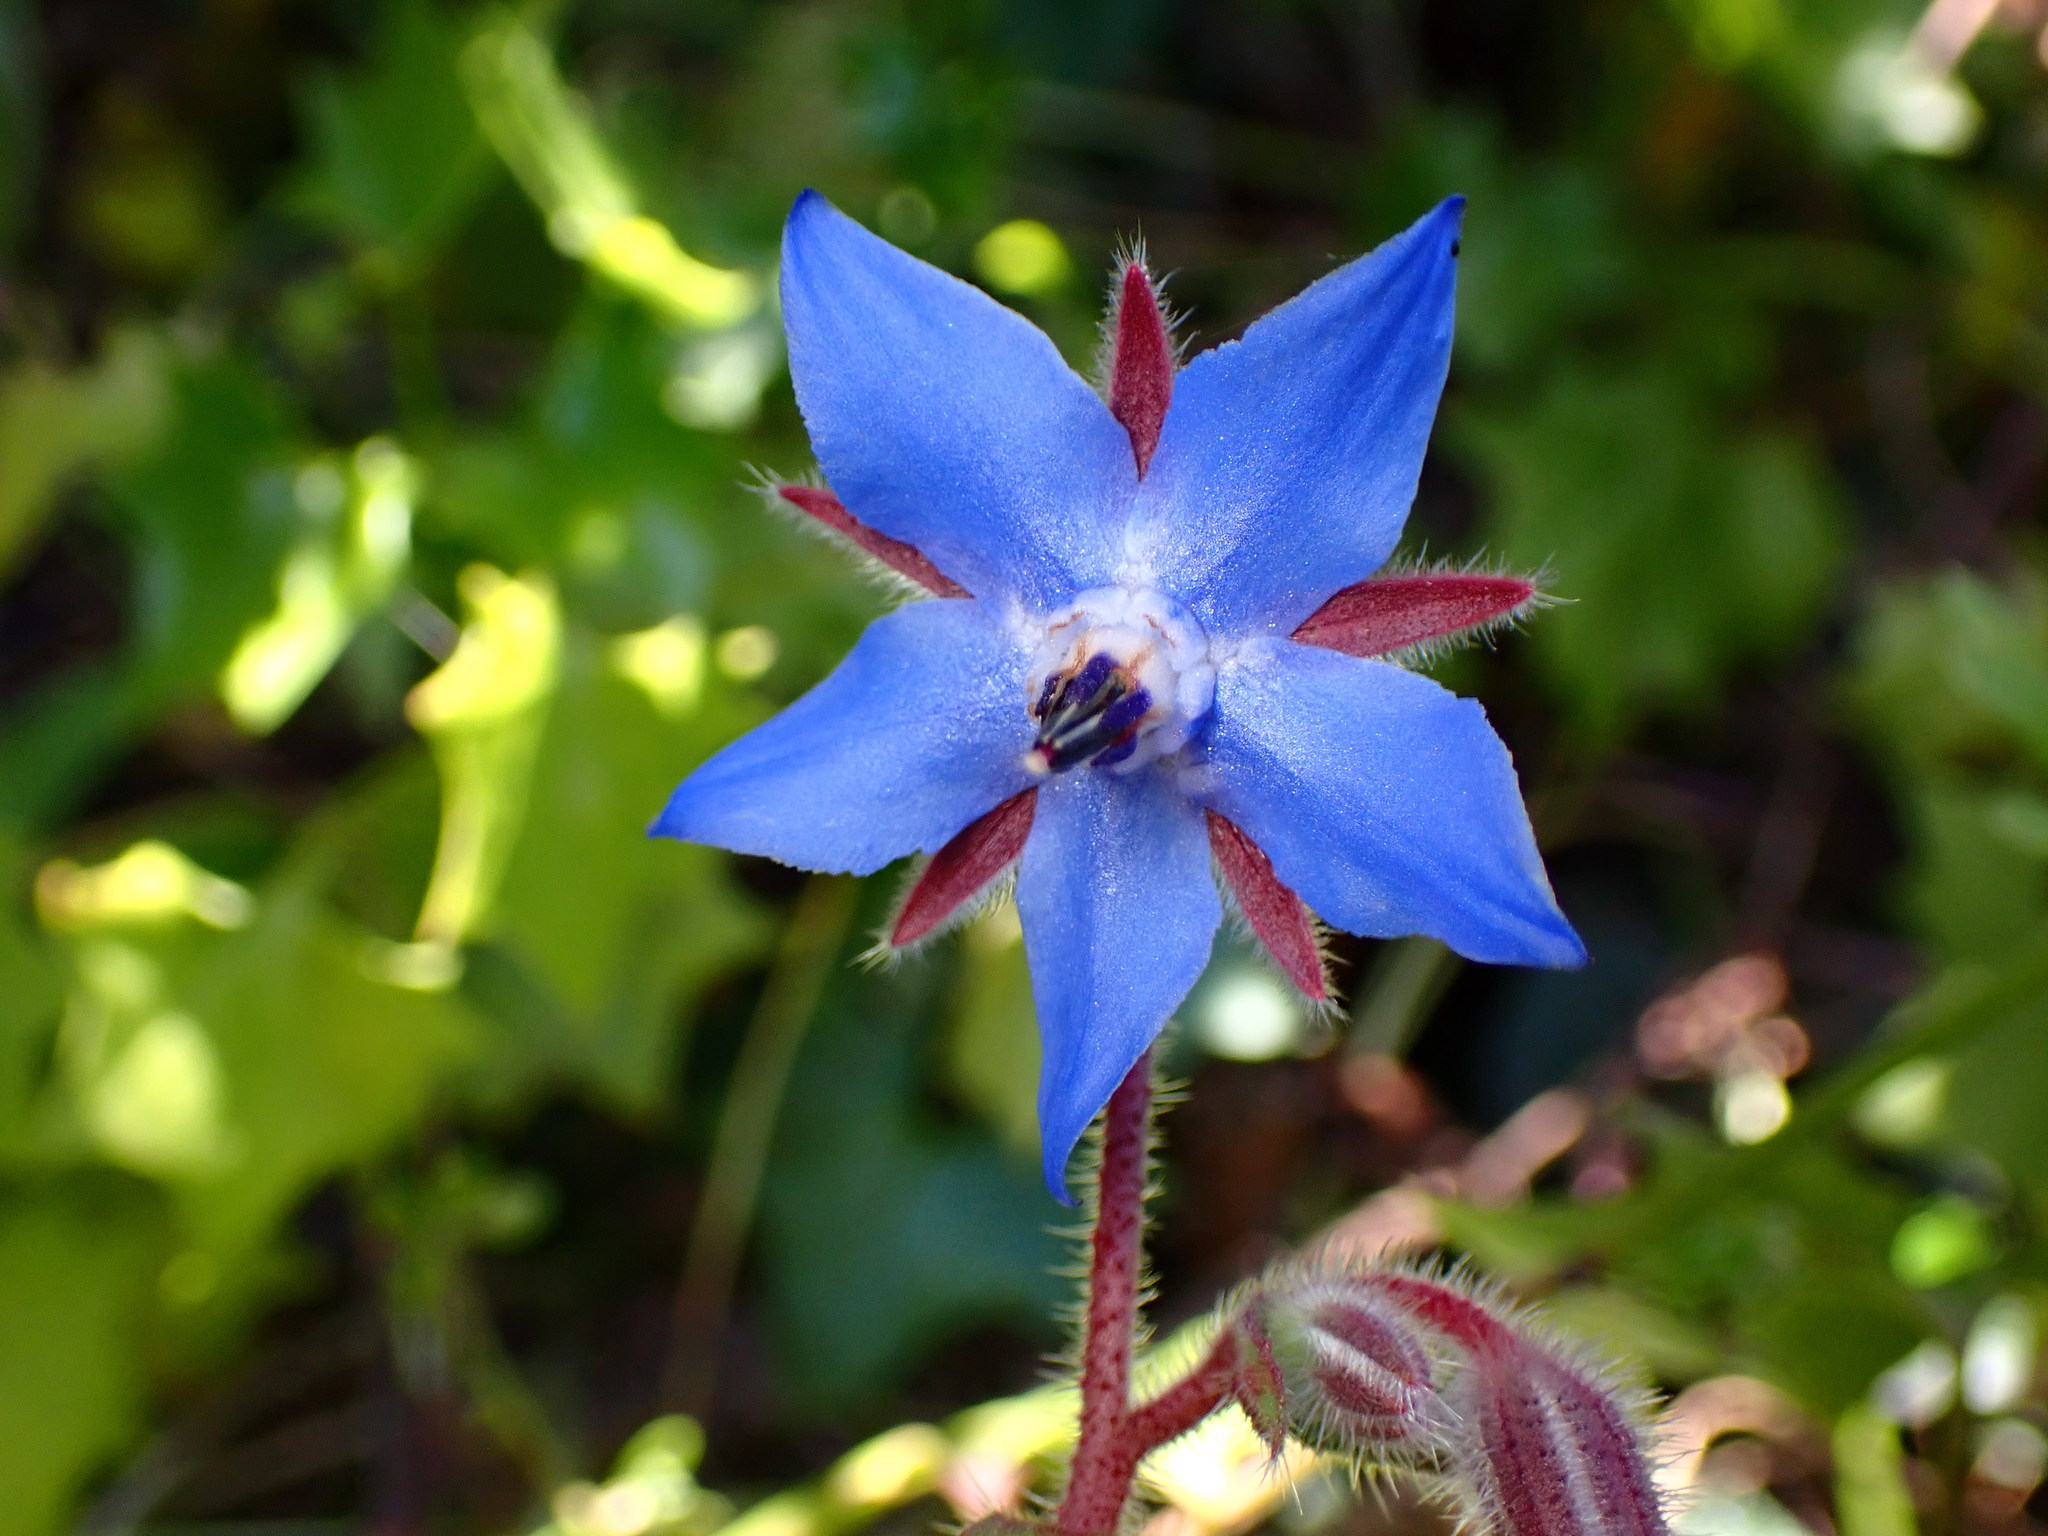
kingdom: Plantae
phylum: Tracheophyta
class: Magnoliopsida
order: Boraginales
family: Boraginaceae
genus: Borago
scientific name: Borago officinalis
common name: Borage
